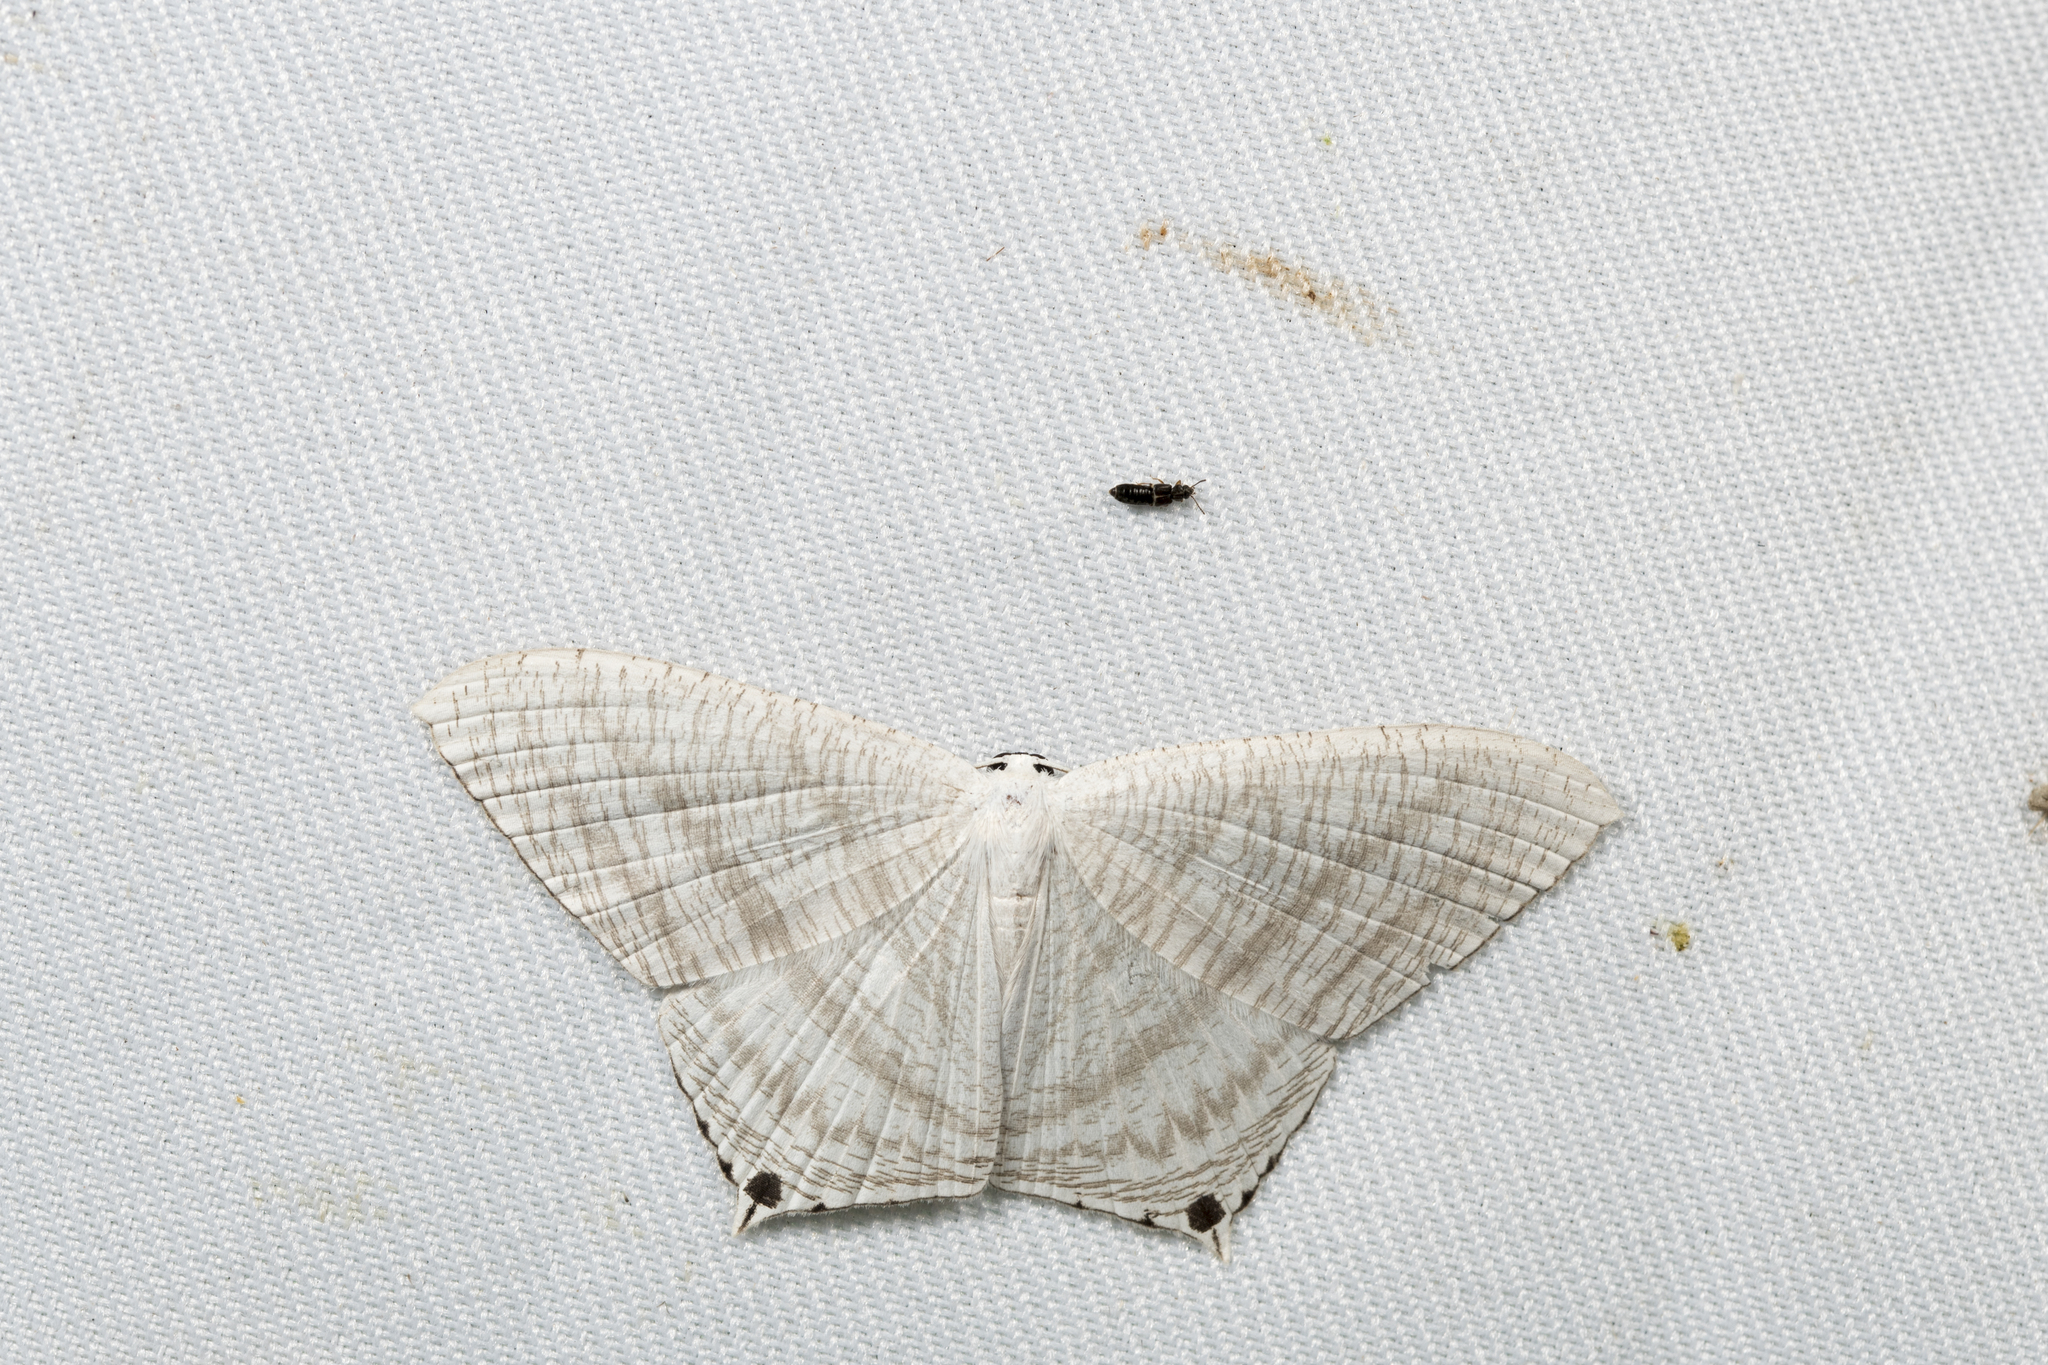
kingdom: Animalia
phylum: Arthropoda
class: Insecta
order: Lepidoptera
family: Uraniidae
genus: Micronia
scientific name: Micronia aculeata
